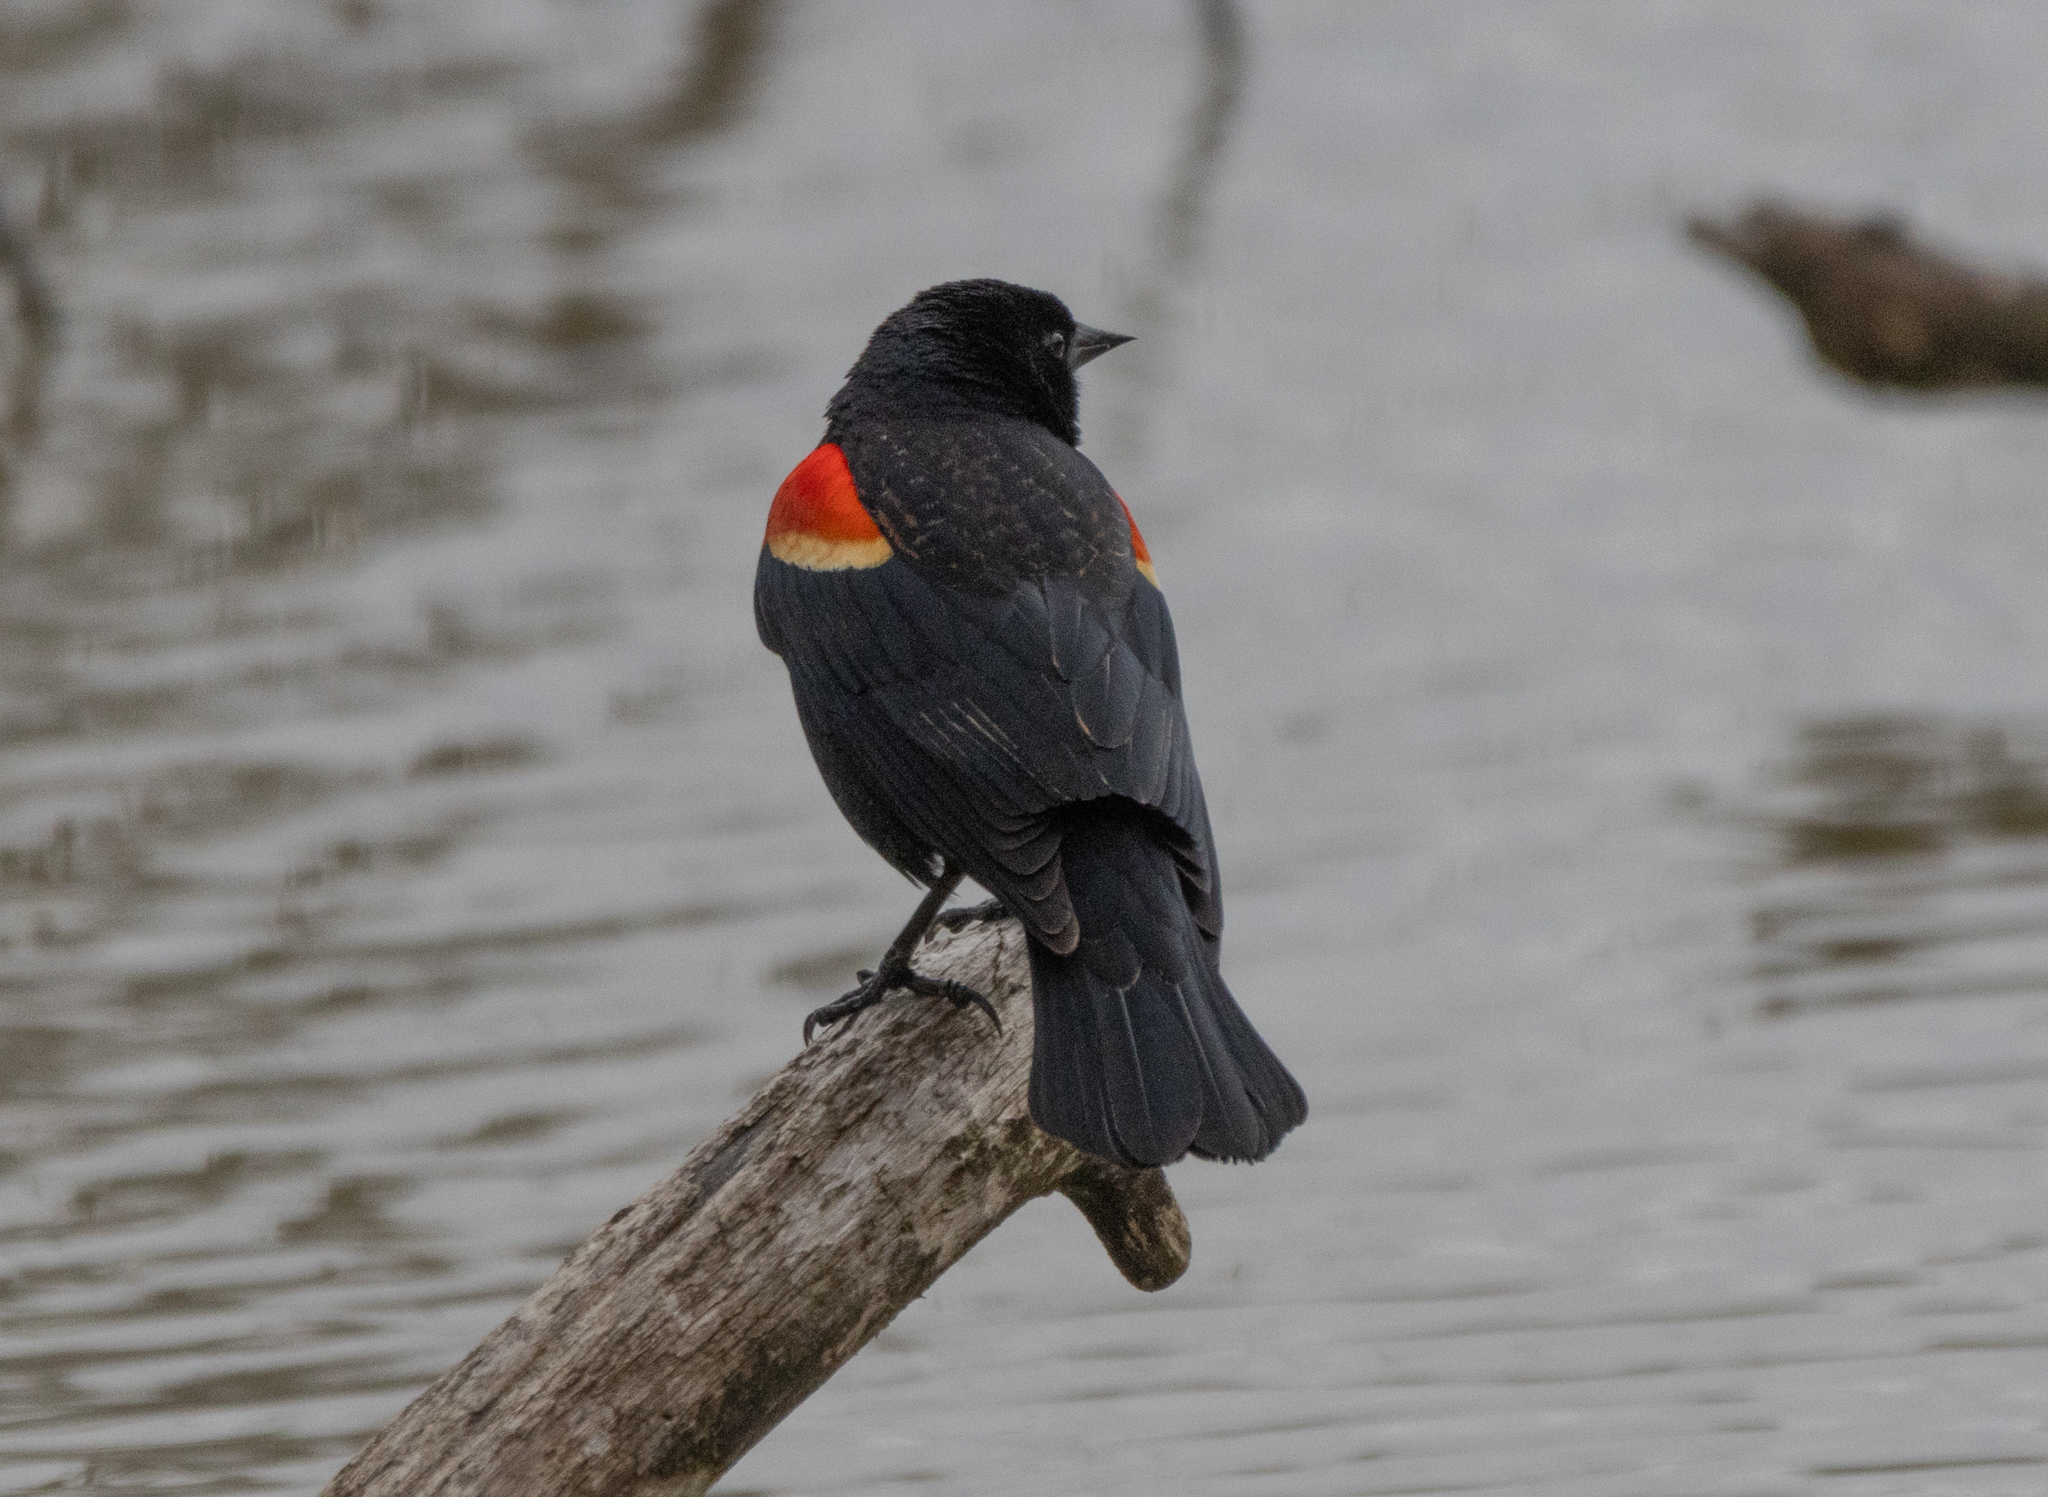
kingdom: Animalia
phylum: Chordata
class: Aves
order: Passeriformes
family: Icteridae
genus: Agelaius
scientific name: Agelaius phoeniceus
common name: Red-winged blackbird
